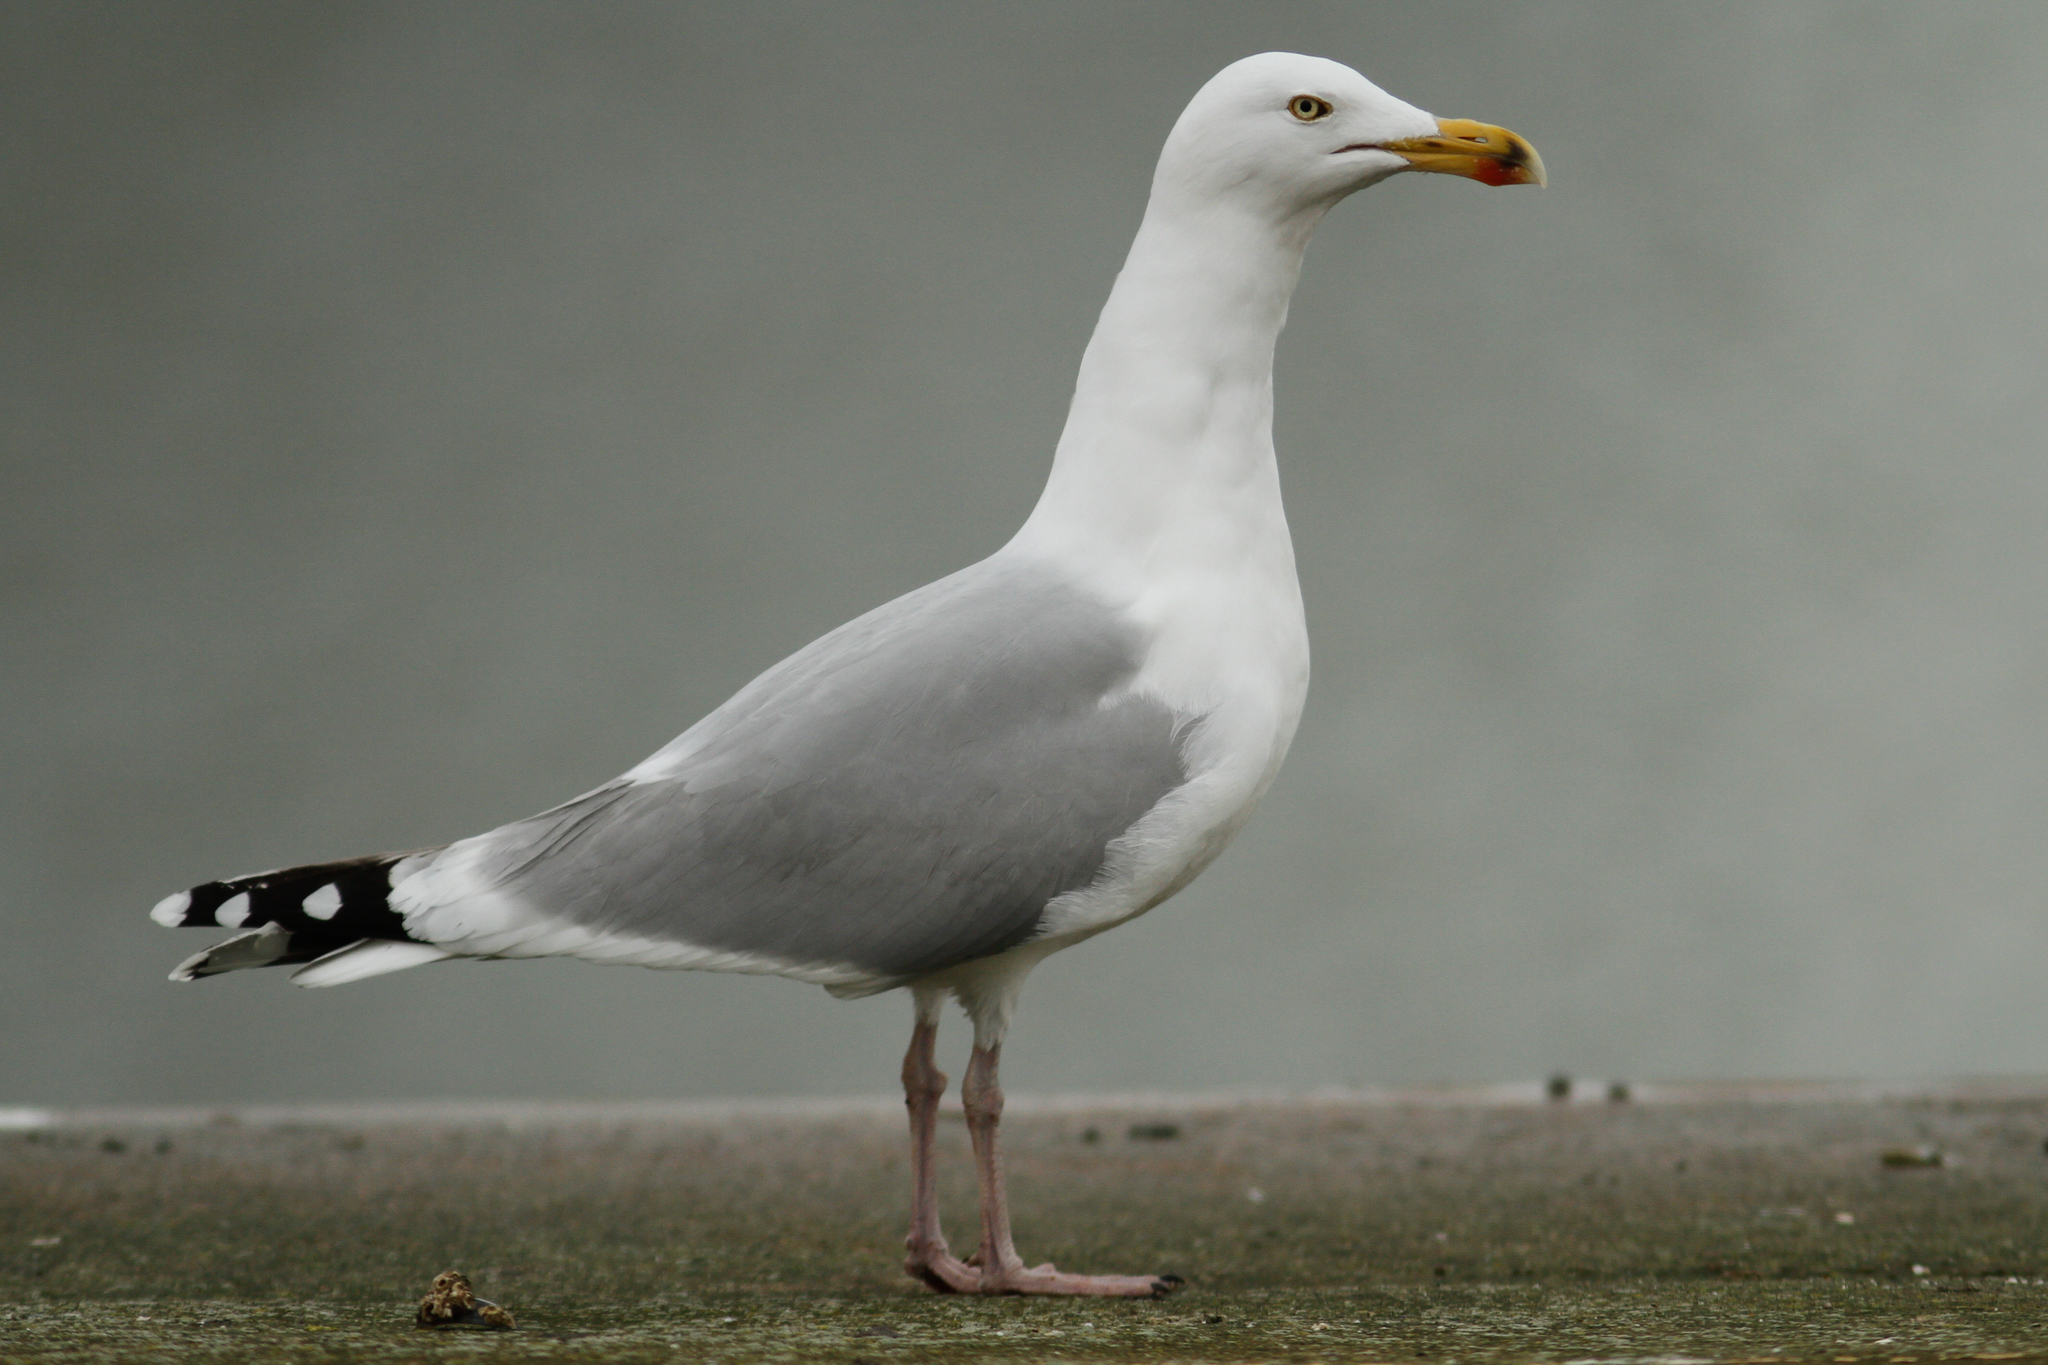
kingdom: Animalia
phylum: Chordata
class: Aves
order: Charadriiformes
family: Laridae
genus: Larus
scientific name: Larus argentatus
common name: Herring gull
